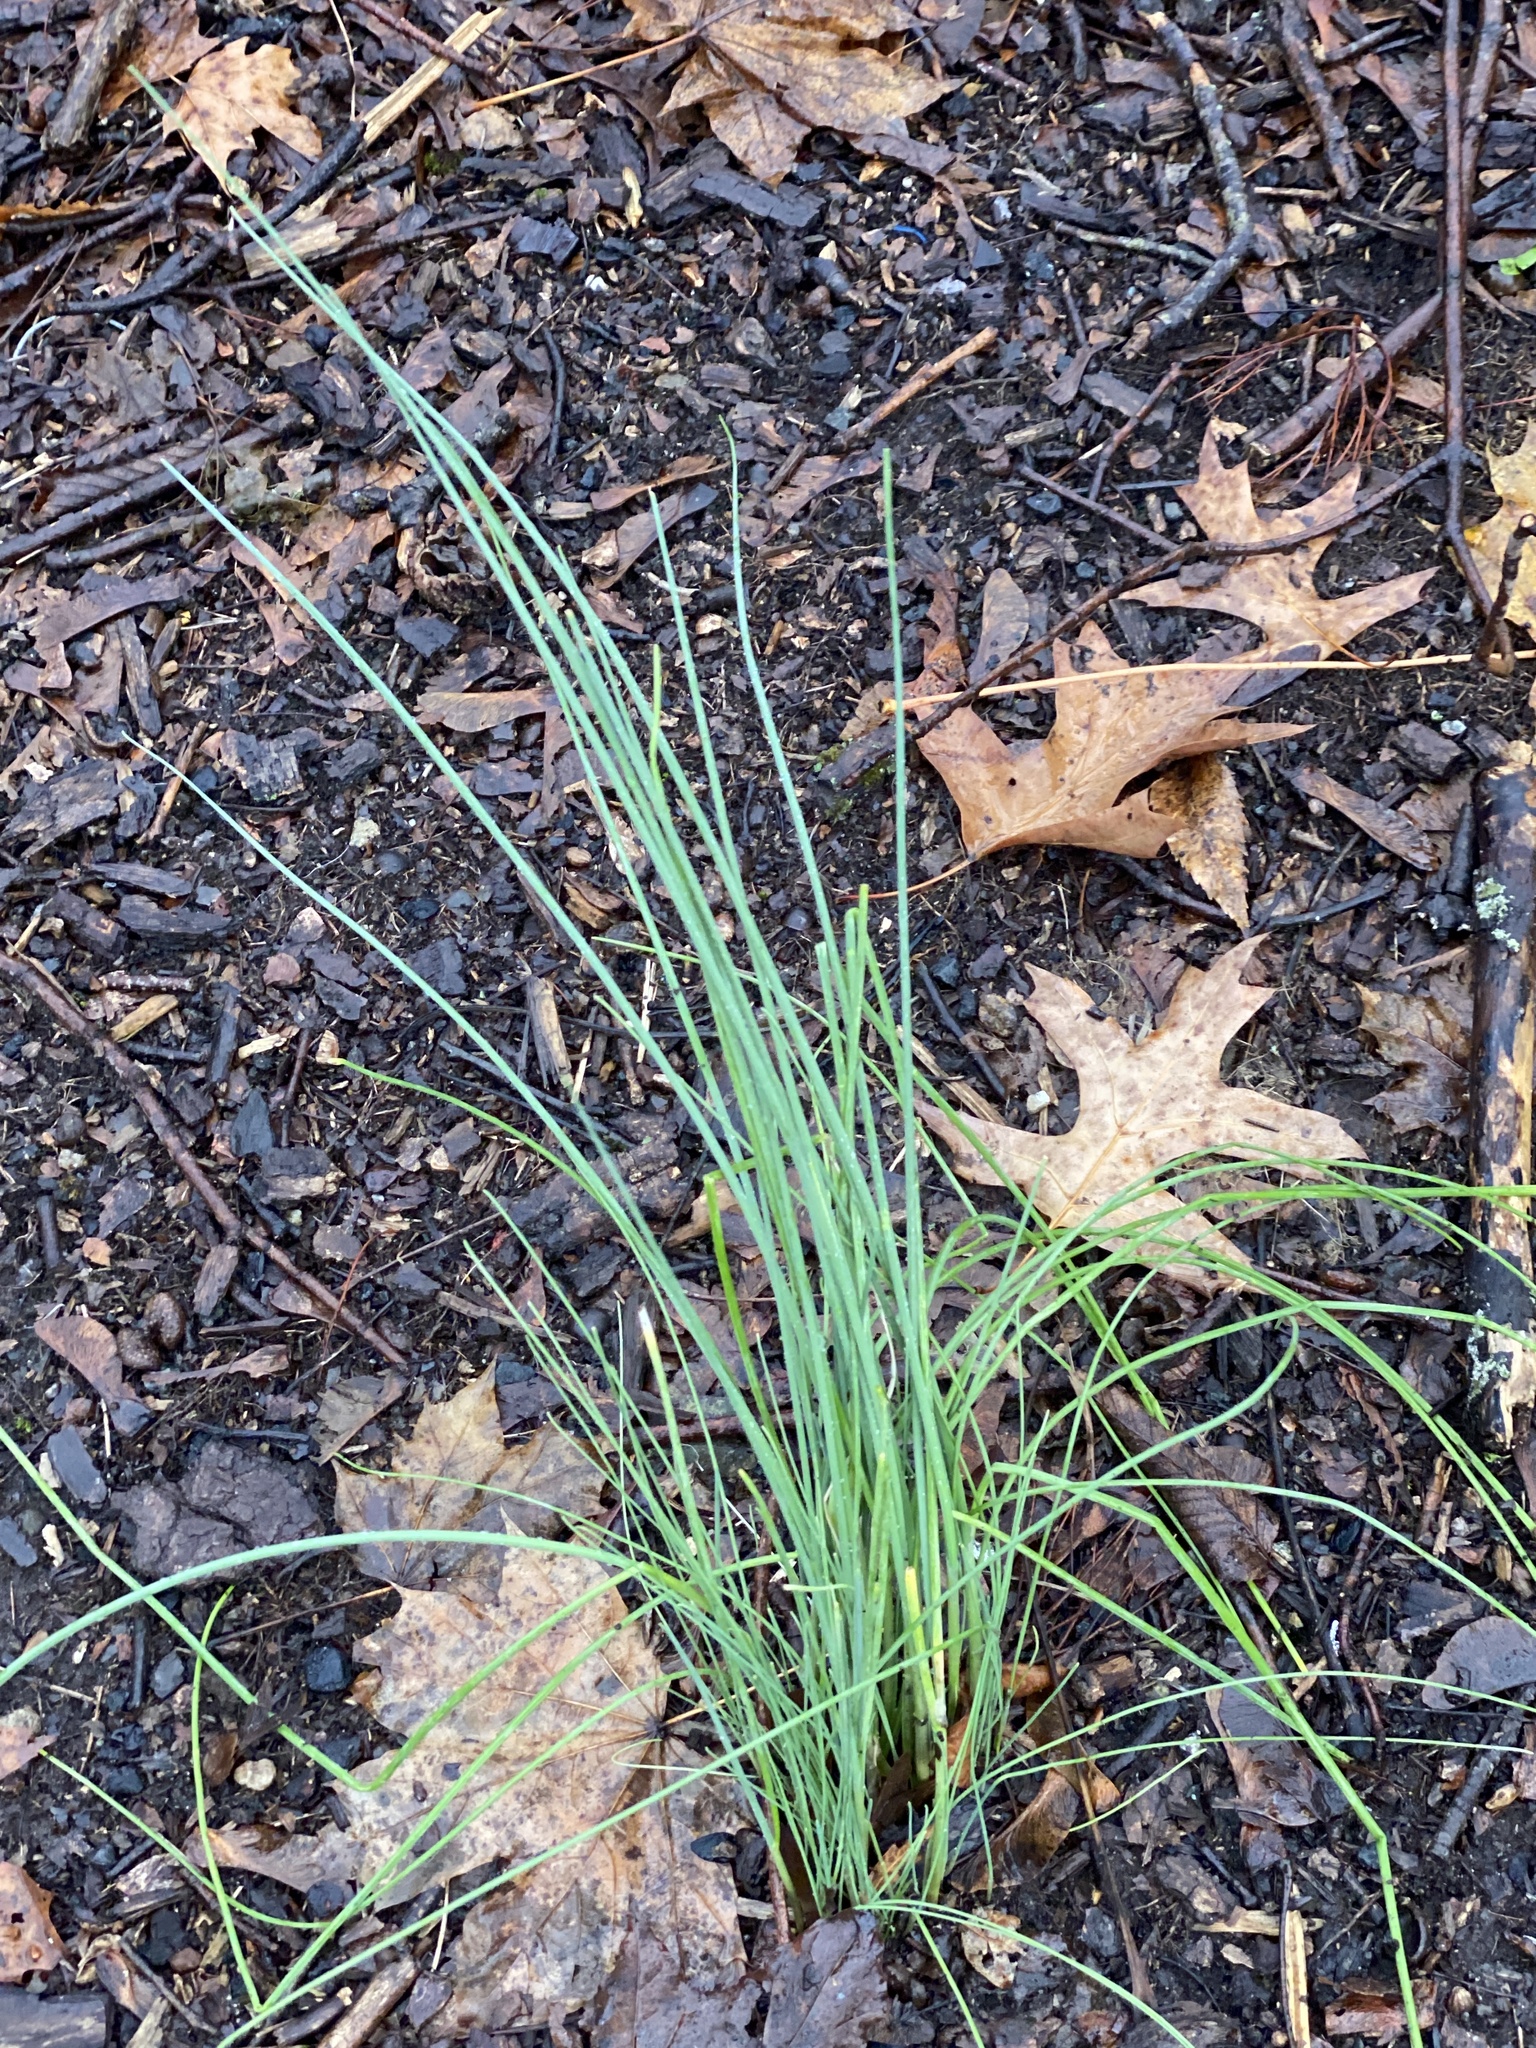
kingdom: Plantae
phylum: Tracheophyta
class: Liliopsida
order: Asparagales
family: Amaryllidaceae
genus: Allium
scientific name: Allium vineale
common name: Crow garlic
